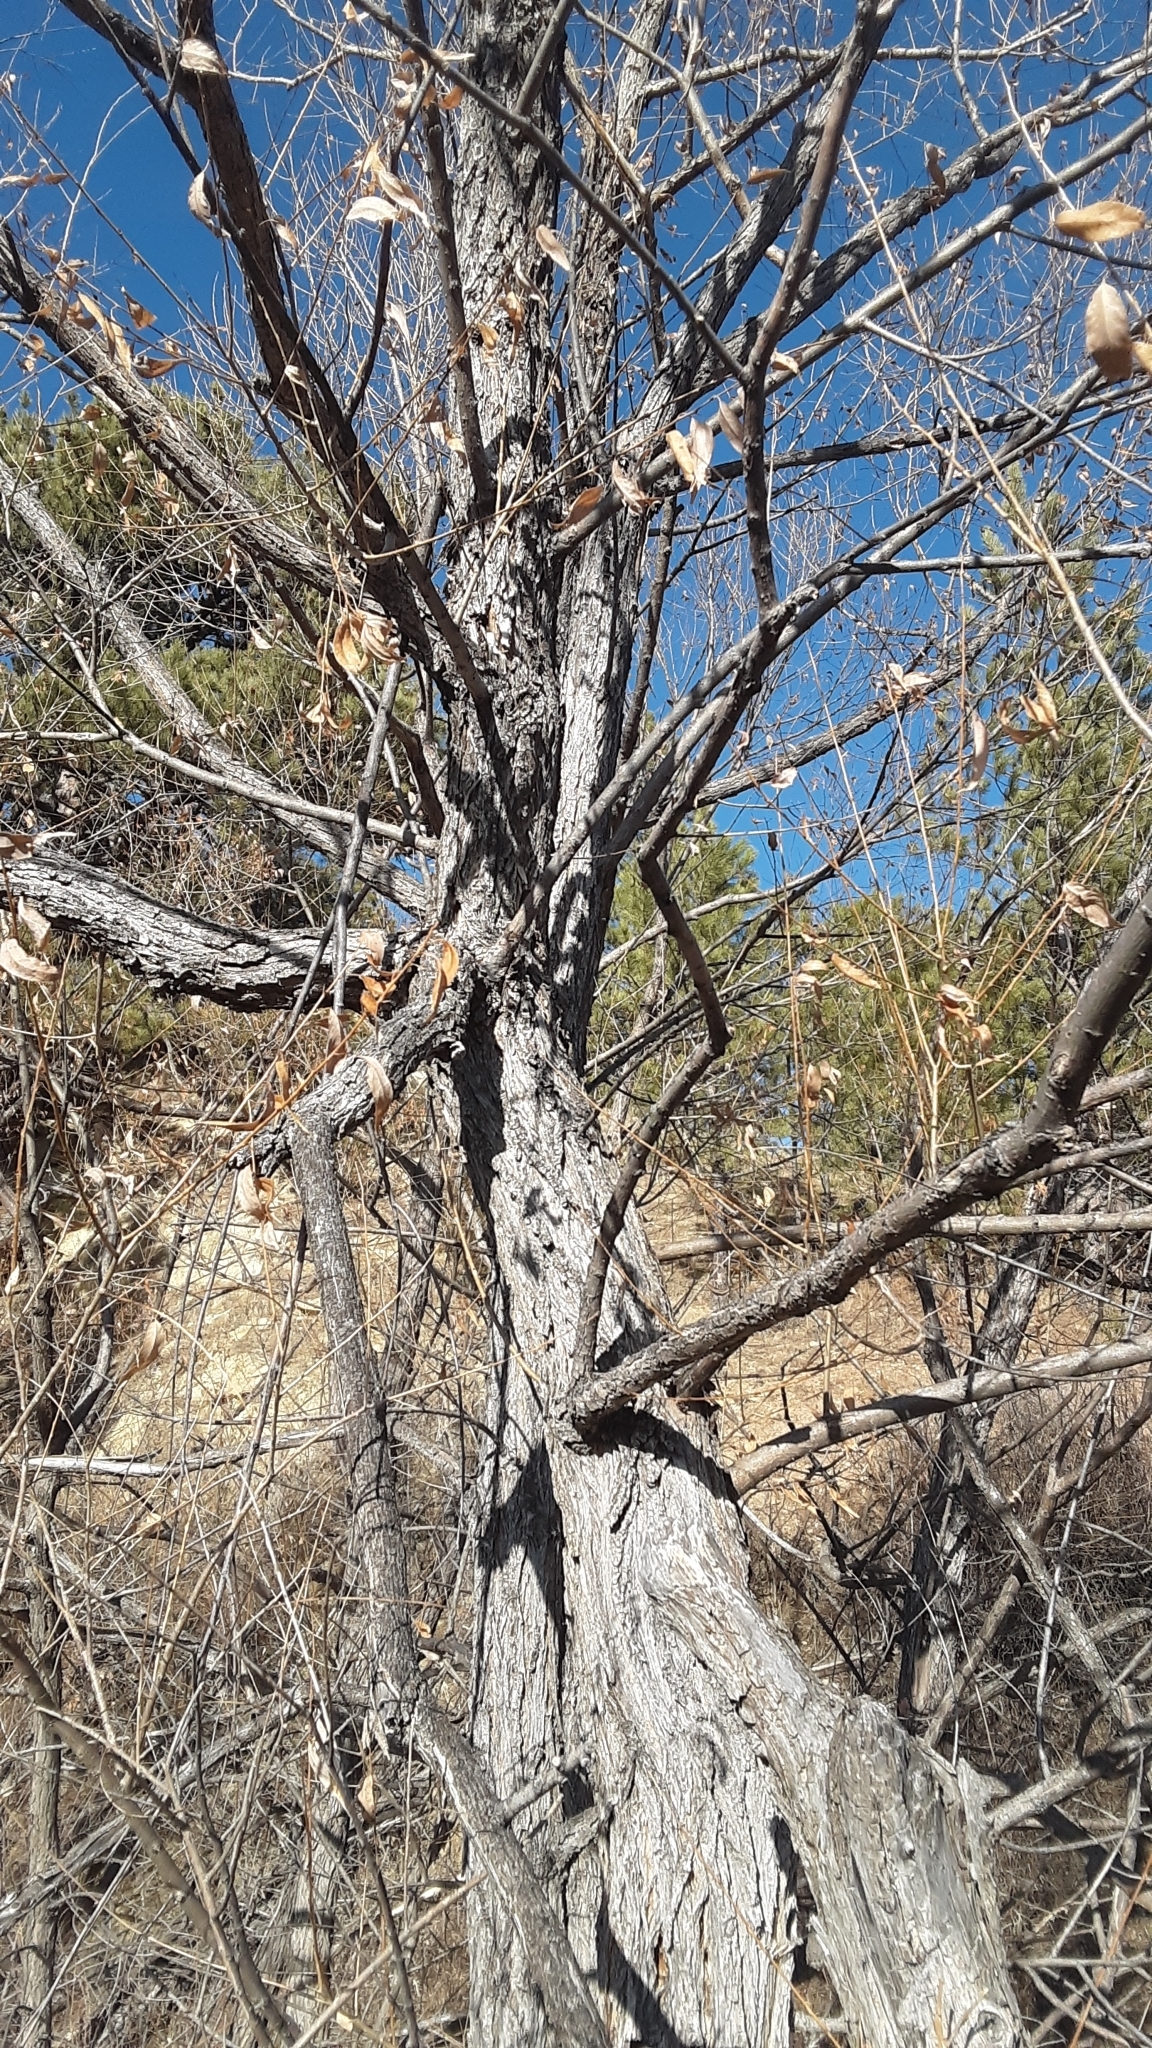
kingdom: Animalia
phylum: Arthropoda
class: Arachnida
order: Trombidiformes
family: Eriophyidae
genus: Aculus
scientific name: Aculus tetanothrix
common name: Willow bead gall mite
